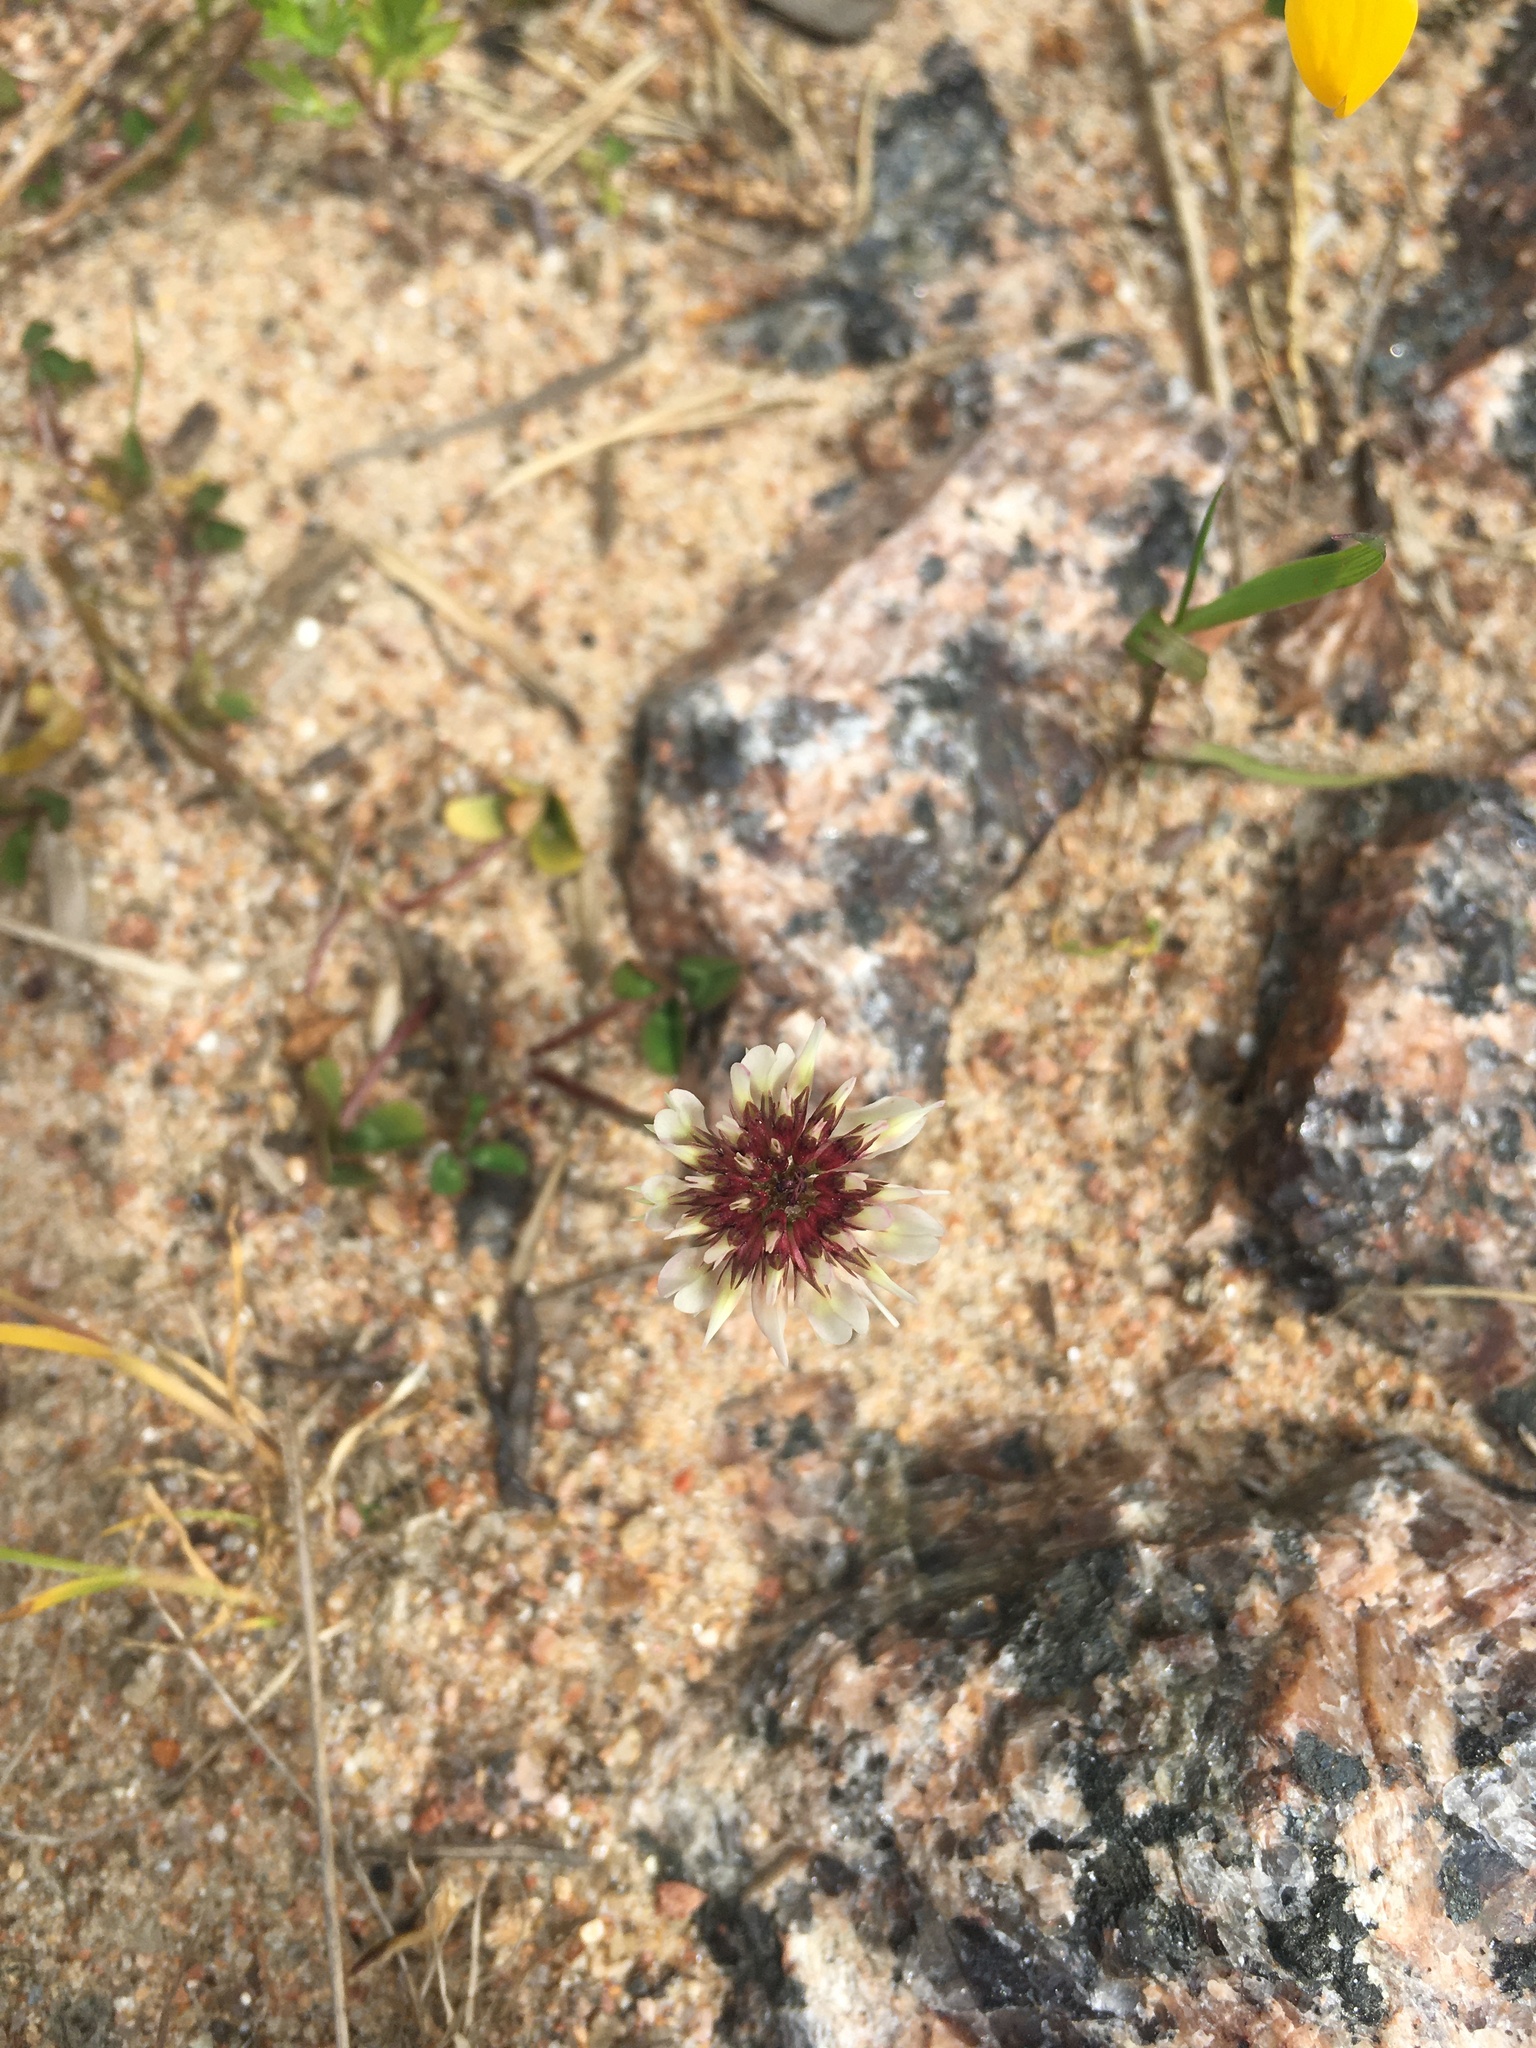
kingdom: Plantae
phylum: Tracheophyta
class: Magnoliopsida
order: Fabales
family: Fabaceae
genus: Trifolium
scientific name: Trifolium repens
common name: White clover
